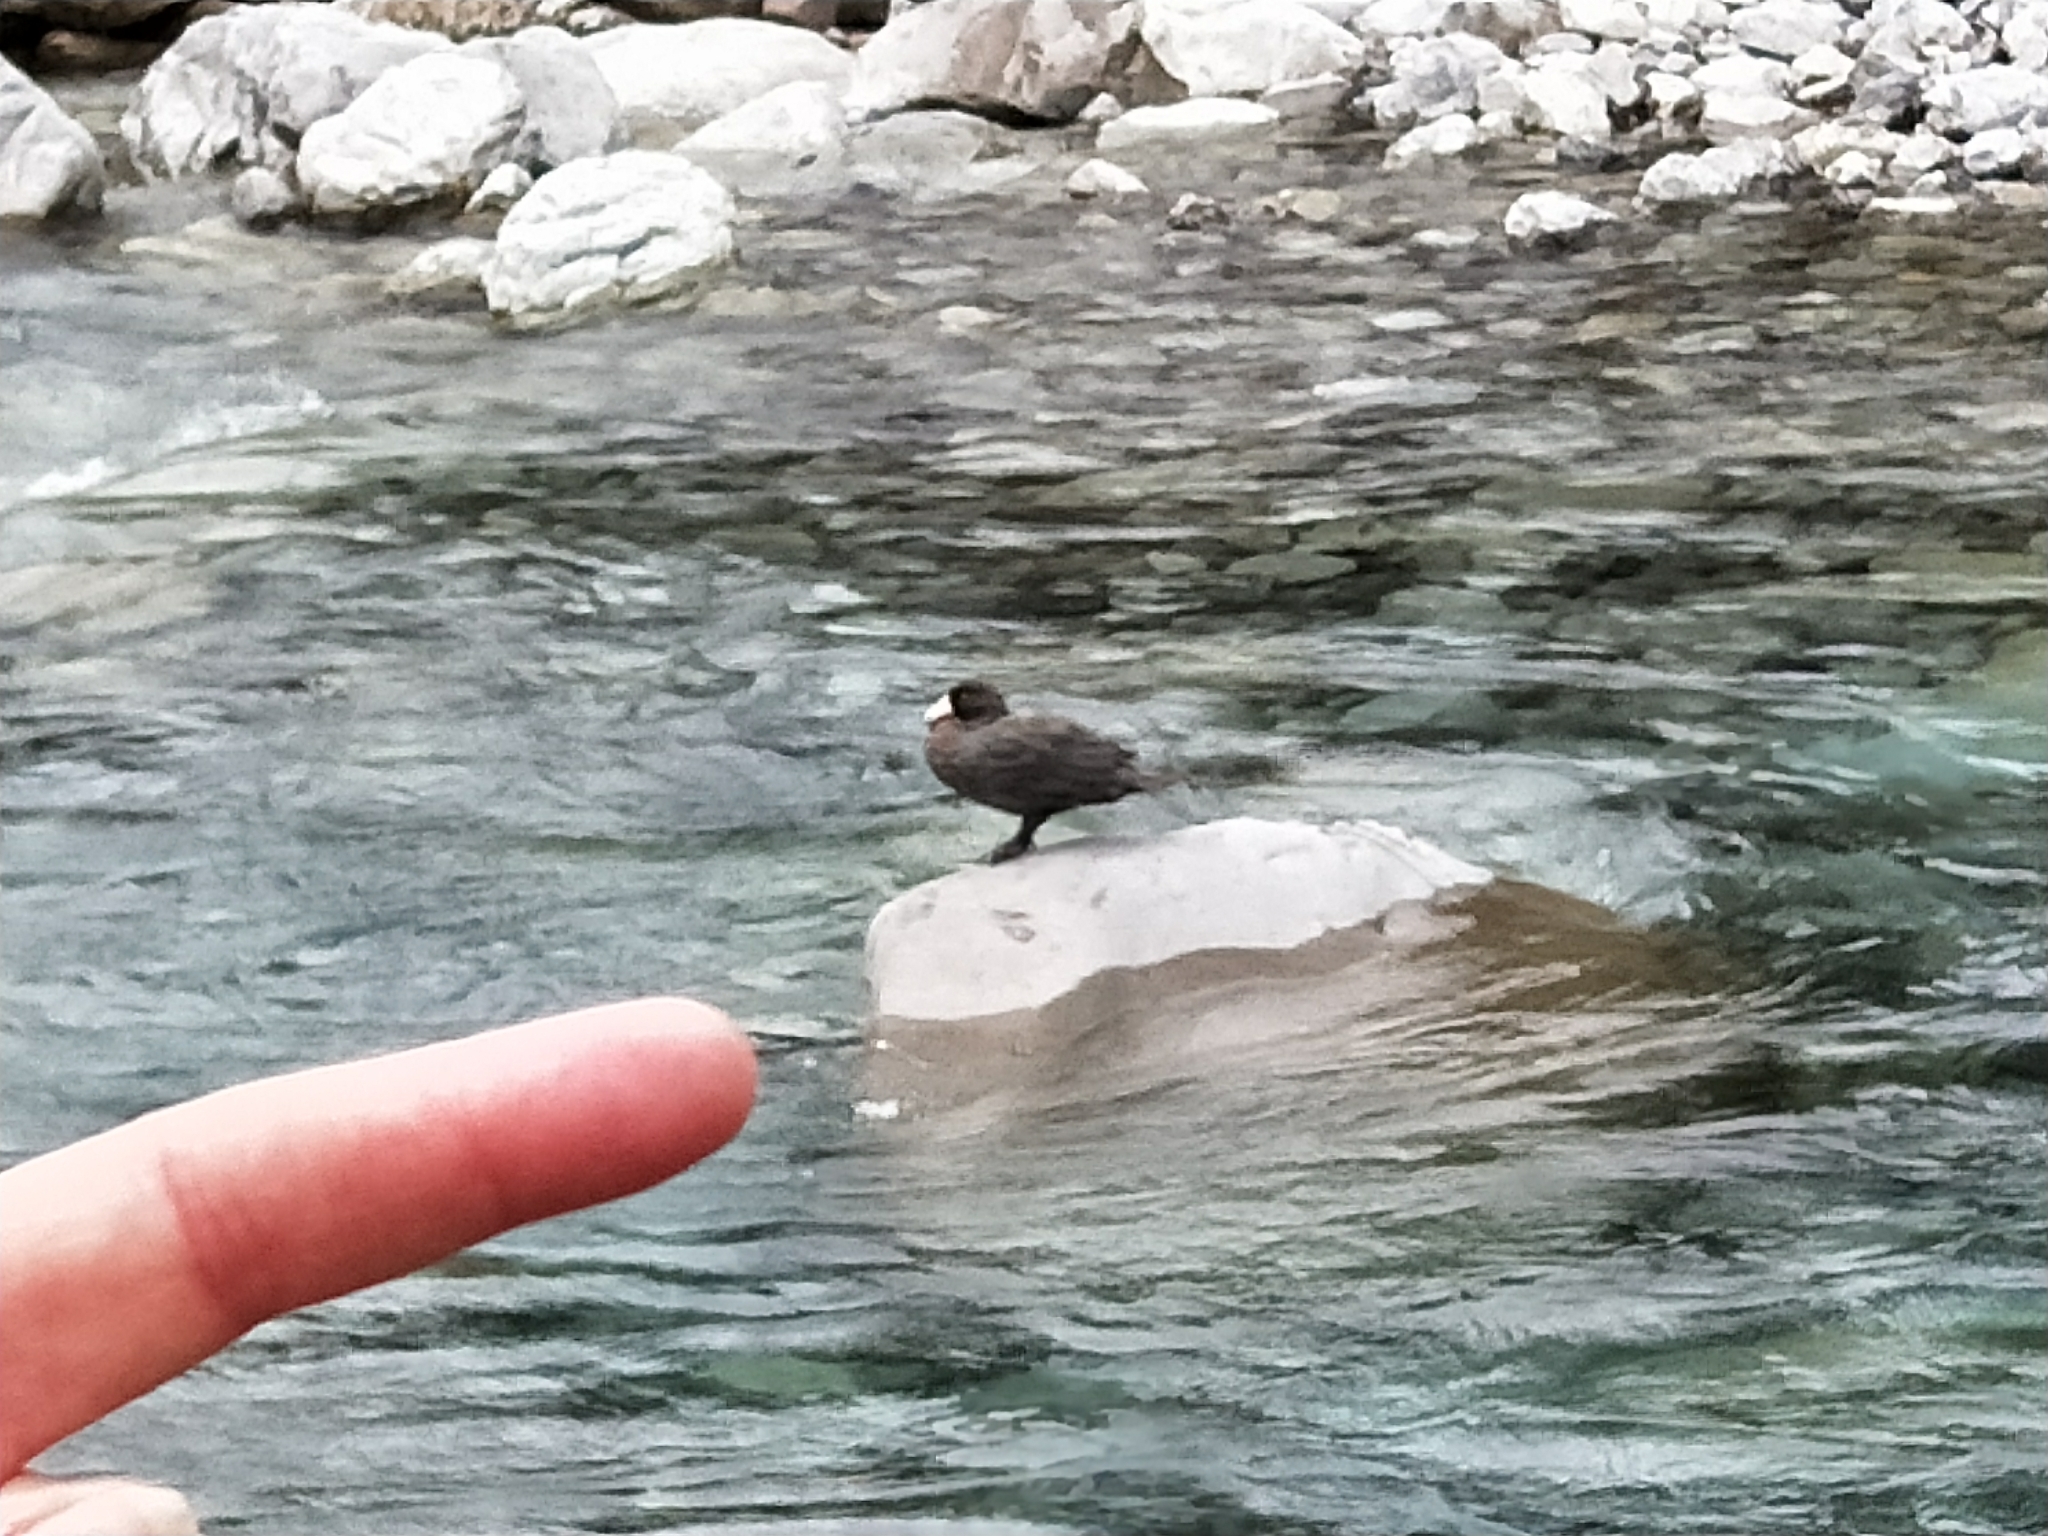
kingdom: Animalia
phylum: Chordata
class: Aves
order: Anseriformes
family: Anatidae
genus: Hymenolaimus
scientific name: Hymenolaimus malacorhynchos
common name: Blue duck
